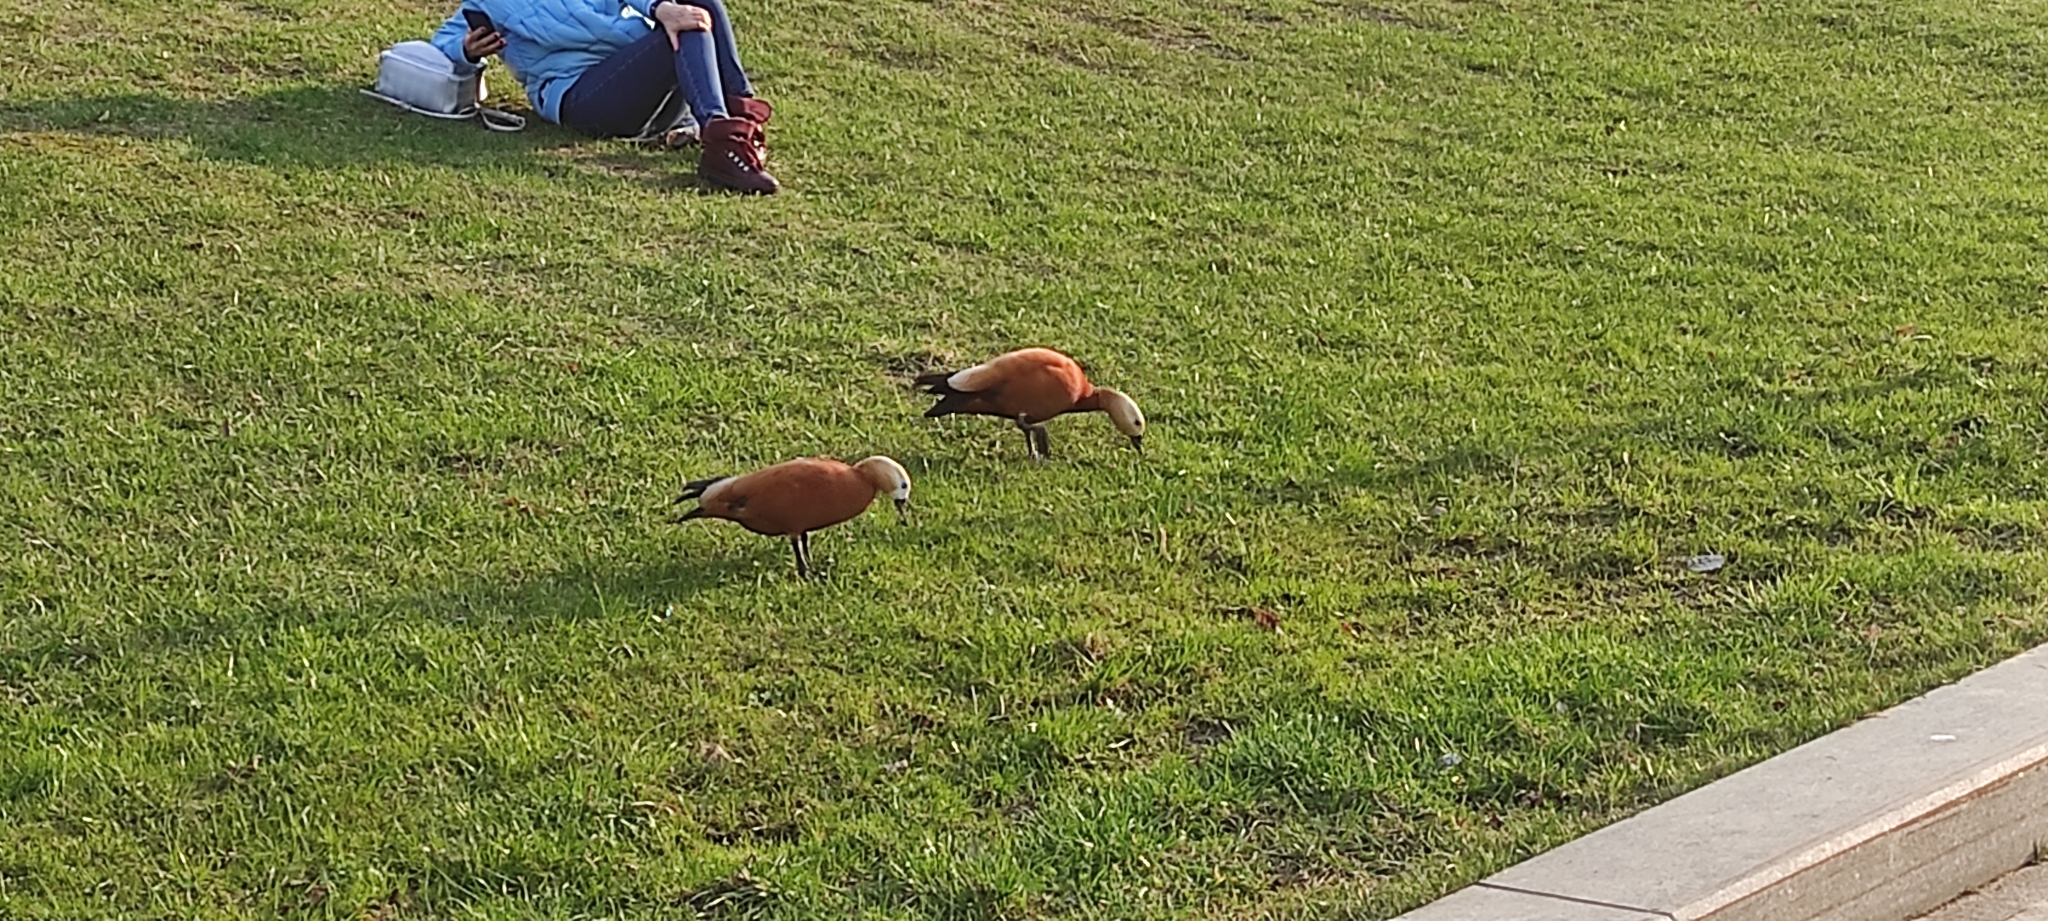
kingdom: Animalia
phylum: Chordata
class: Aves
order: Anseriformes
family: Anatidae
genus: Tadorna
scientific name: Tadorna ferruginea
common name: Ruddy shelduck
